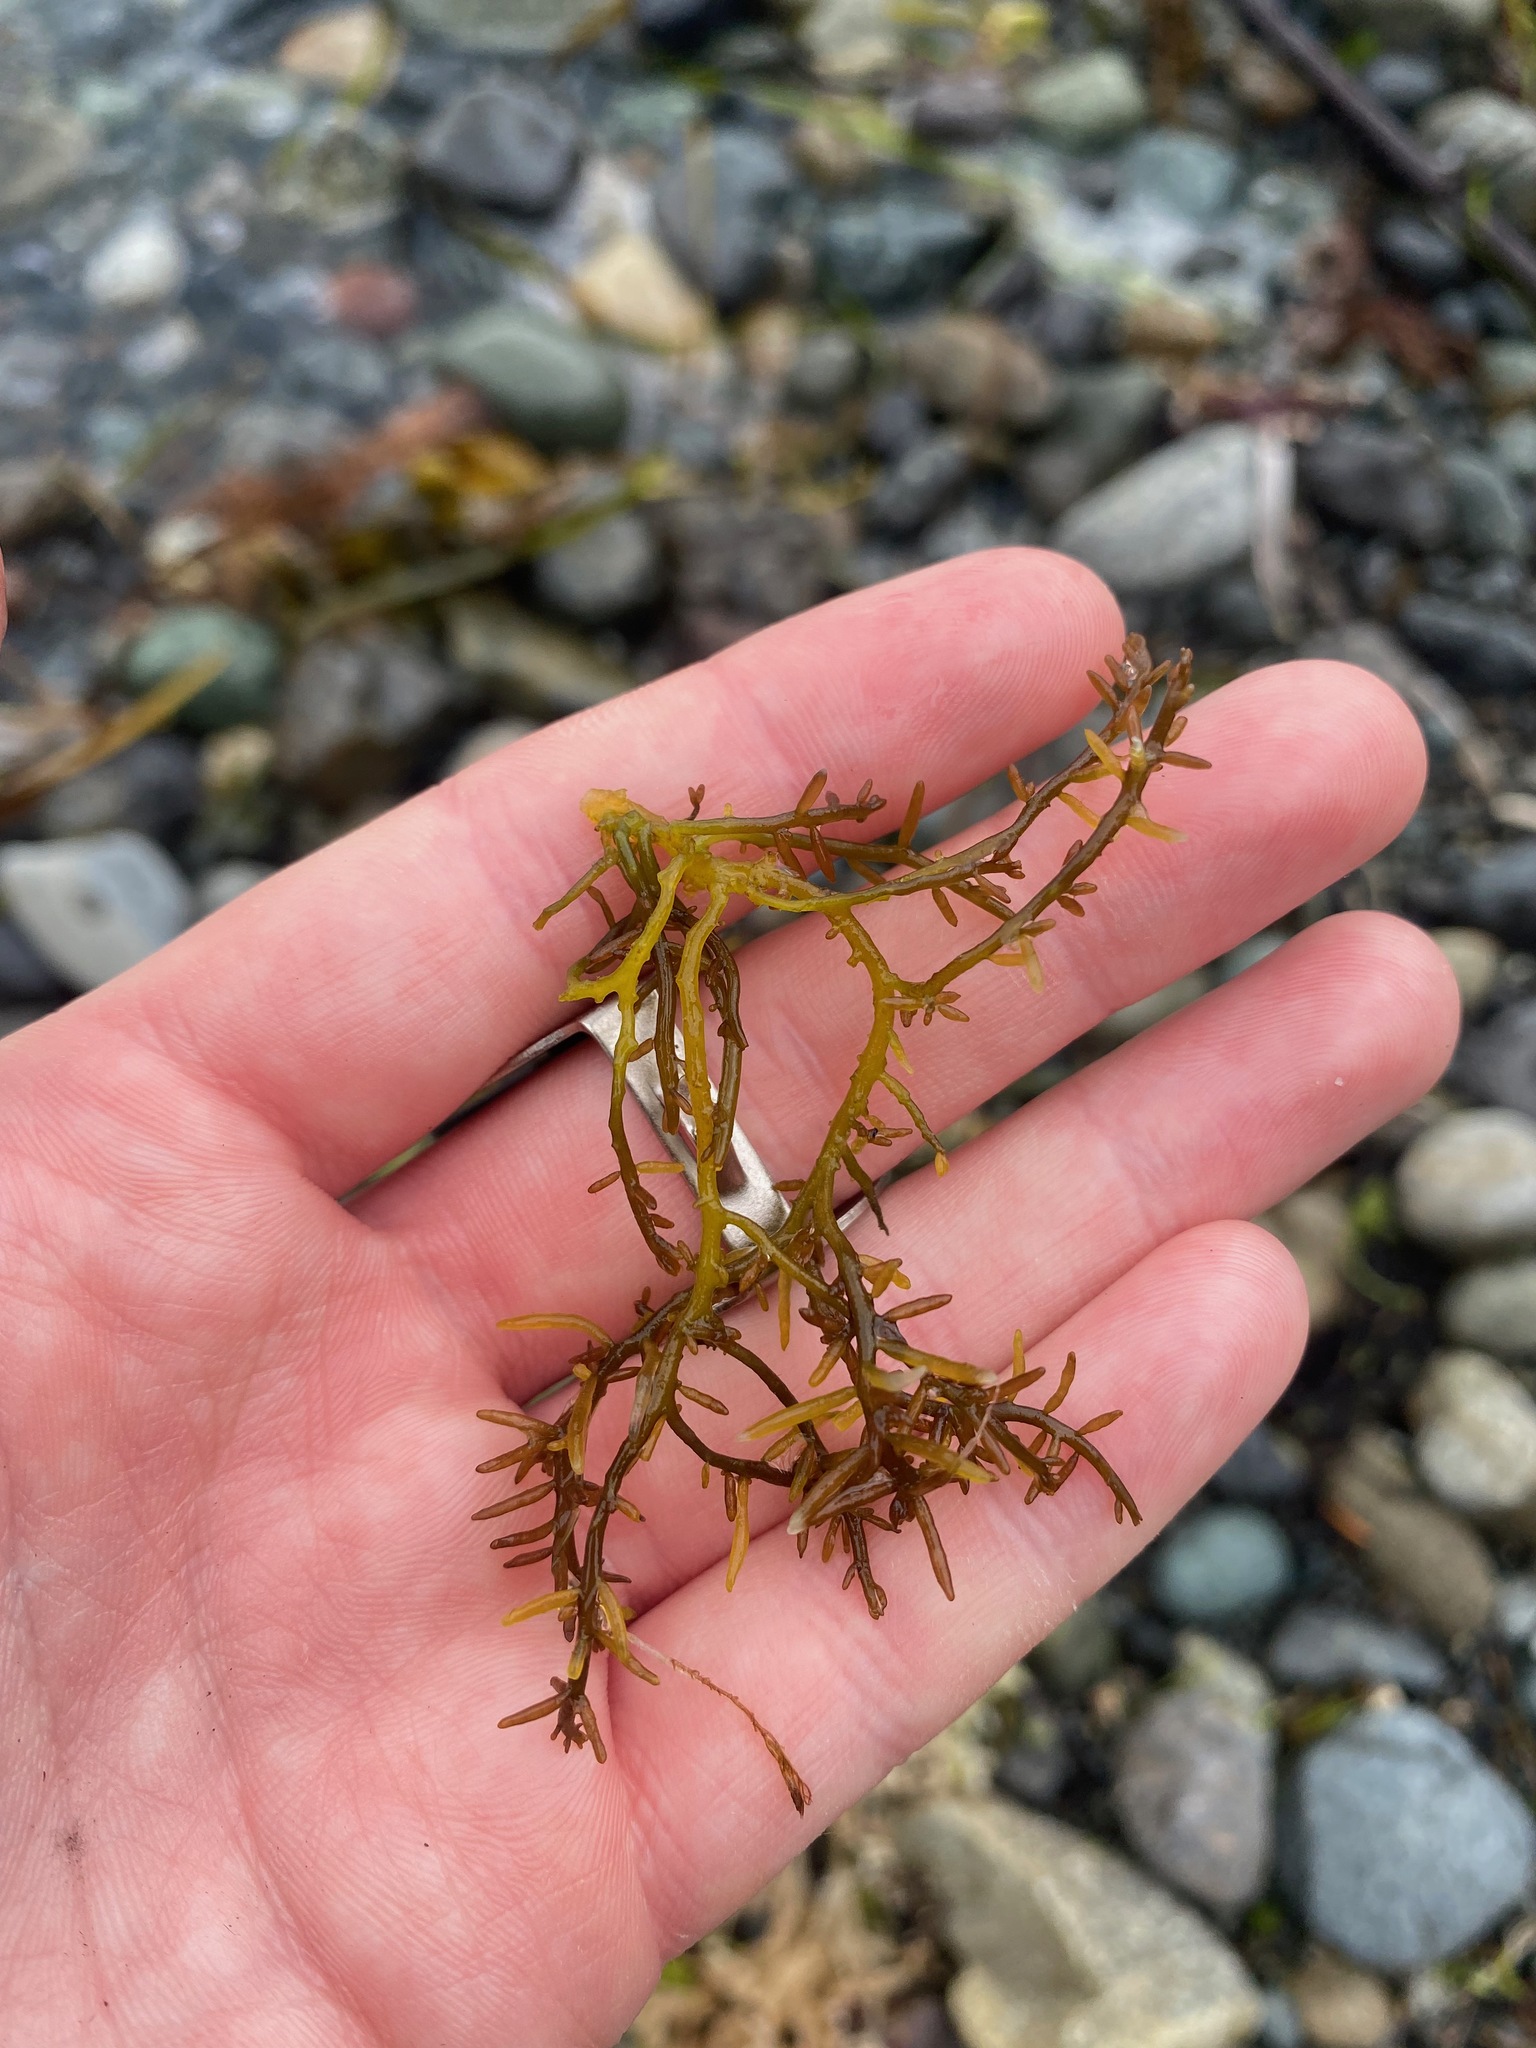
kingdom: Plantae
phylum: Rhodophyta
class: Florideophyceae
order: Rhodymeniales
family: Champiaceae
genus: Neogastroclonium
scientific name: Neogastroclonium subarticulatum
